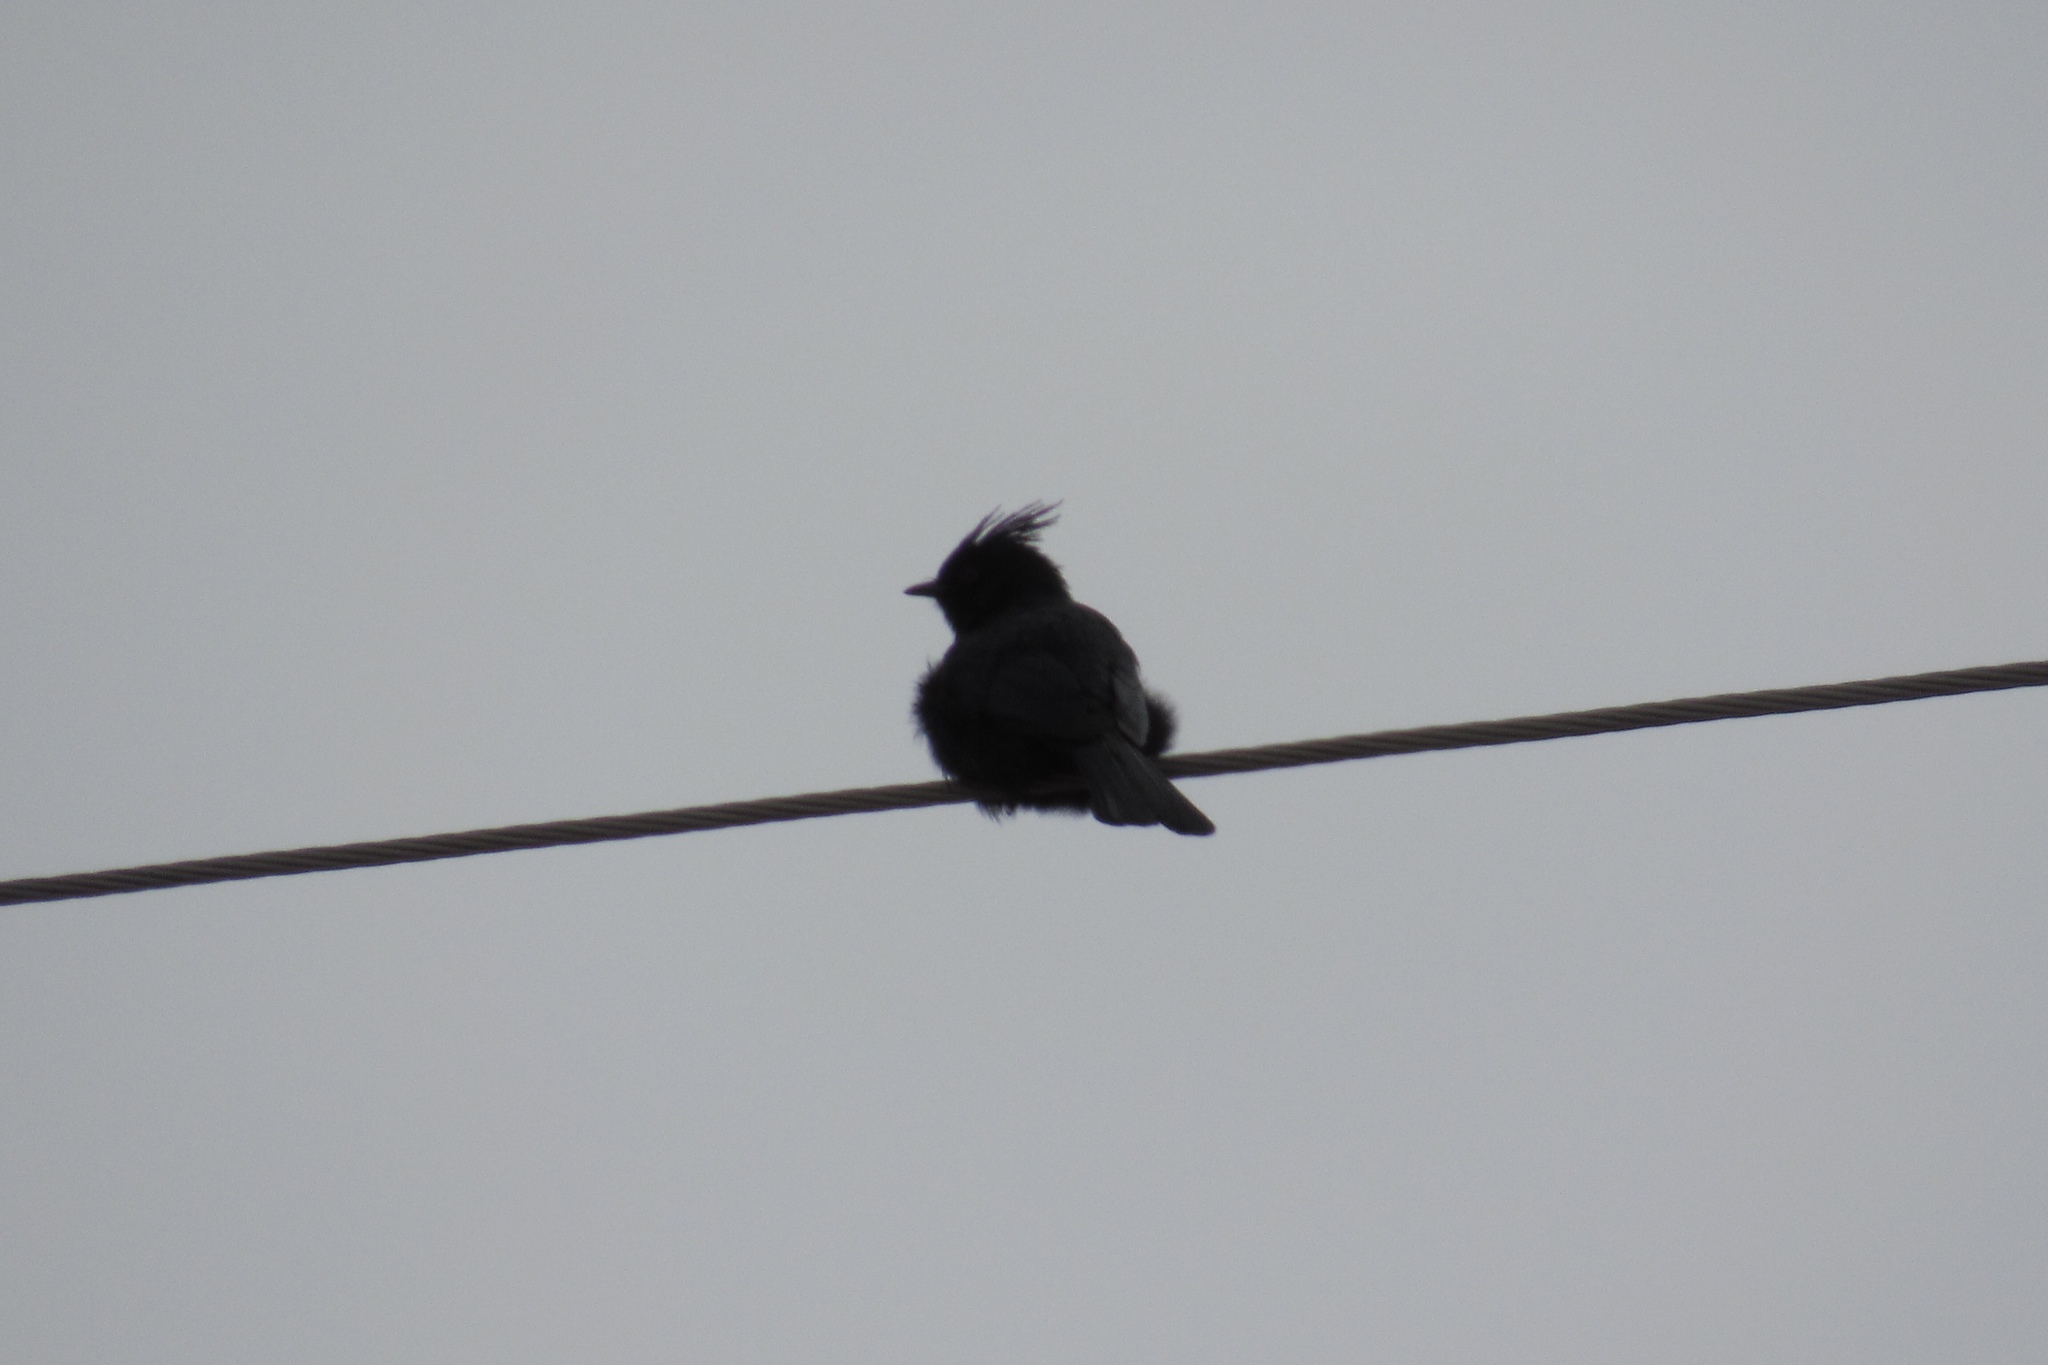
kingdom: Animalia
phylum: Chordata
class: Aves
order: Passeriformes
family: Ptilogonatidae
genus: Phainopepla
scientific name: Phainopepla nitens
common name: Phainopepla
